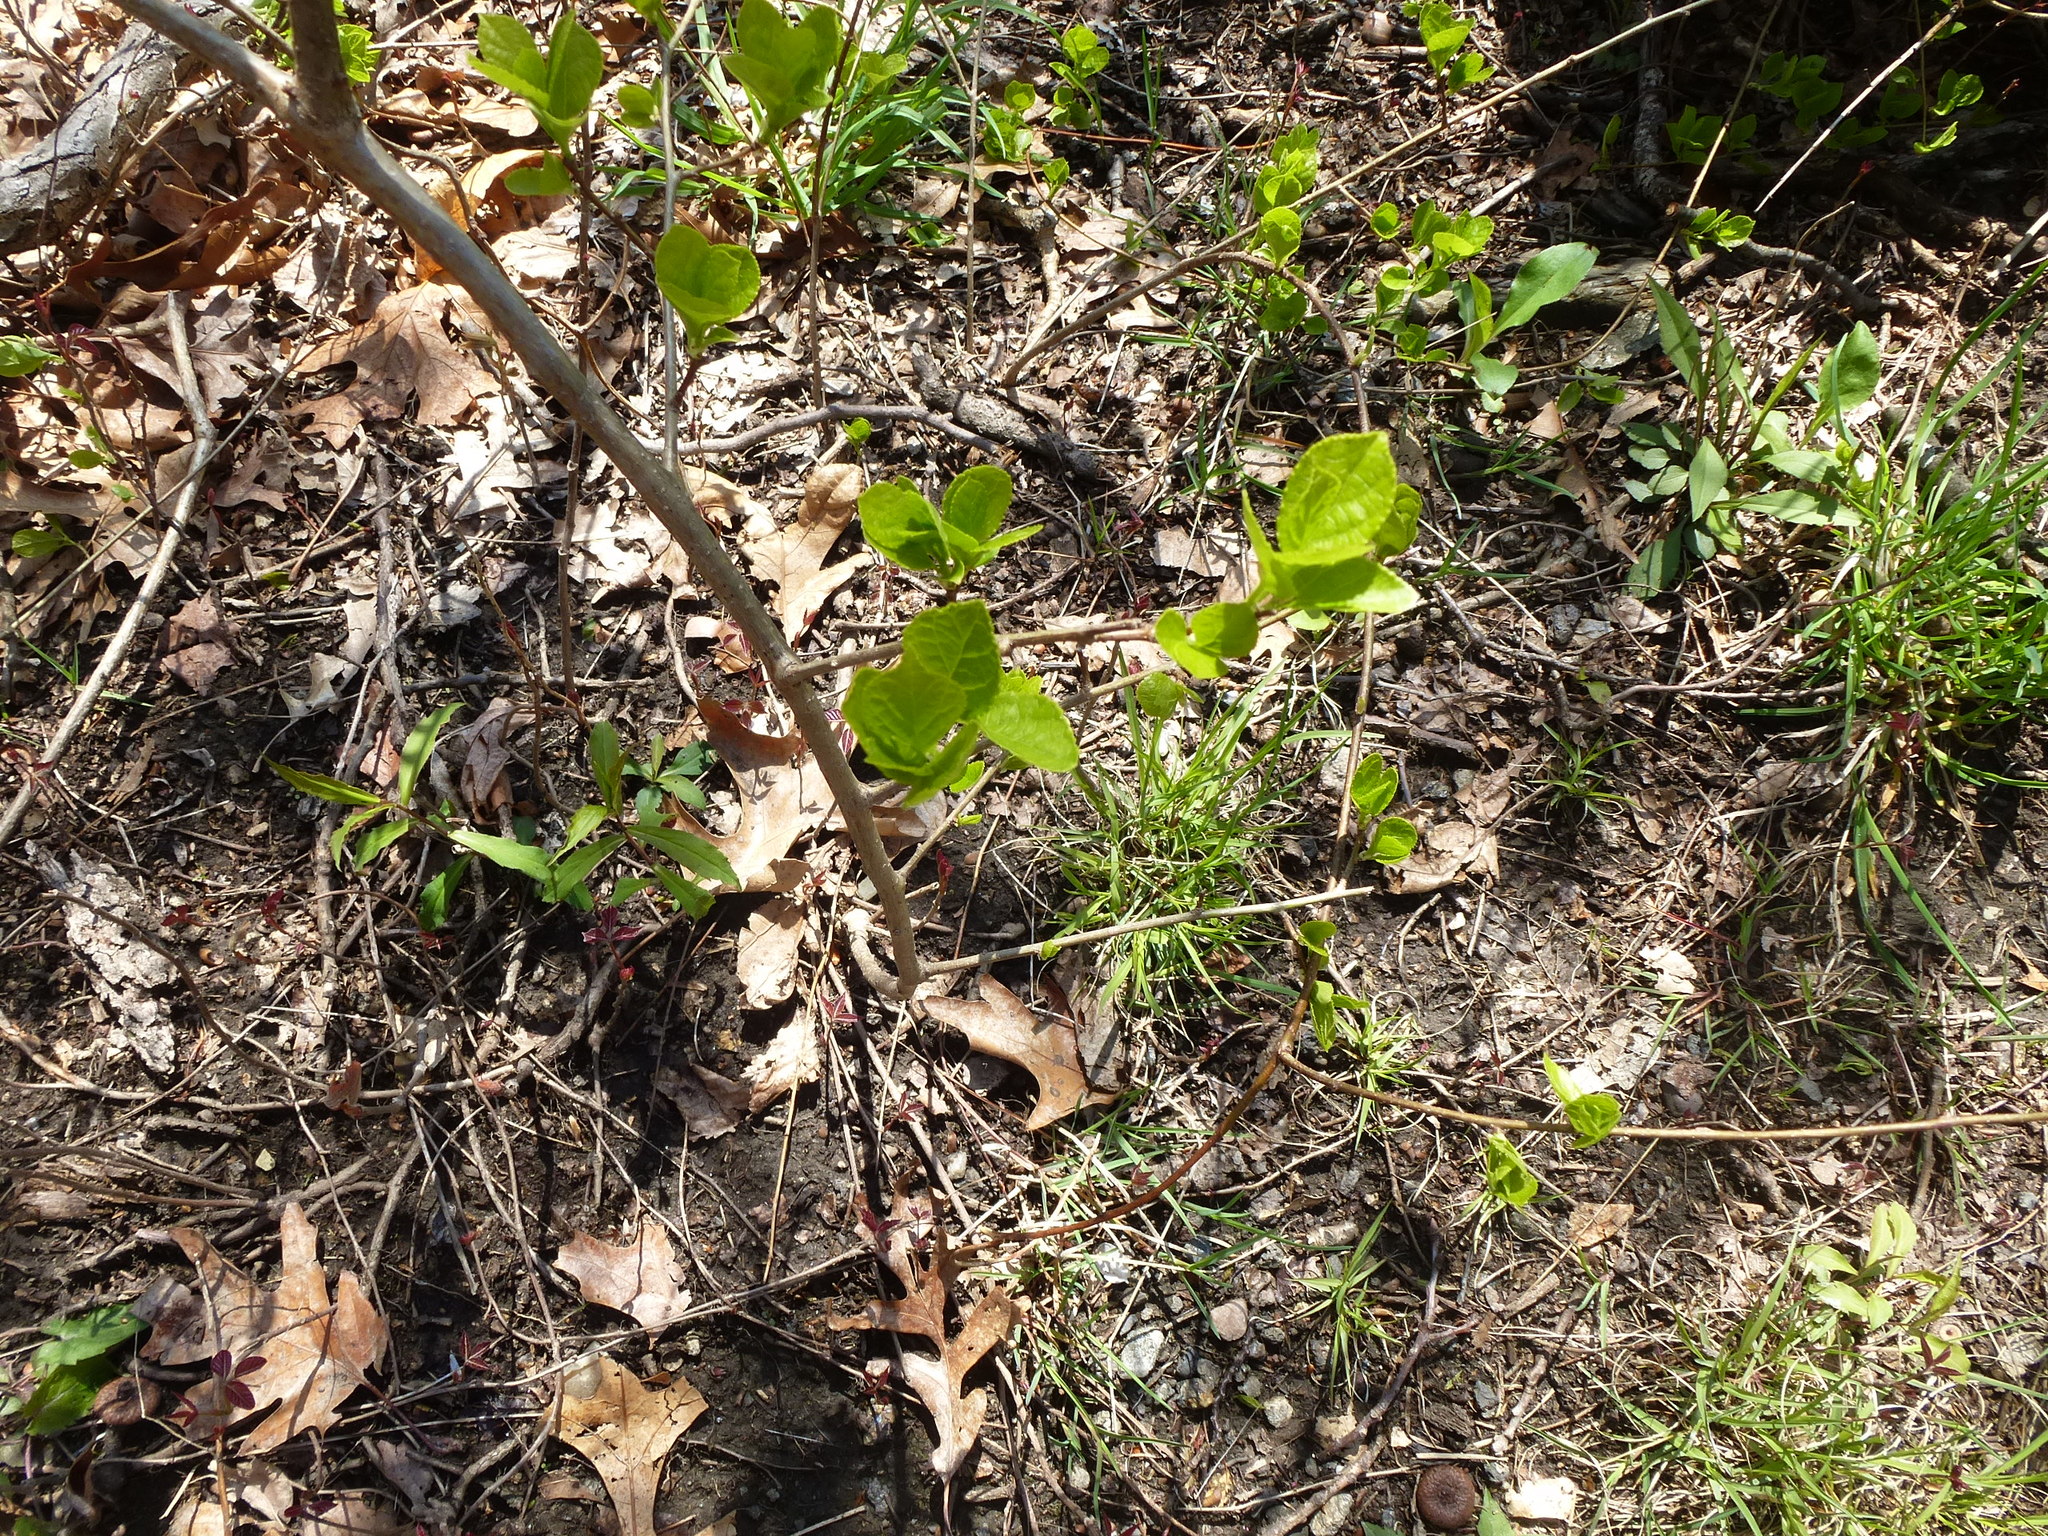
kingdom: Plantae
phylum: Tracheophyta
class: Magnoliopsida
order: Celastrales
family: Celastraceae
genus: Celastrus
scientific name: Celastrus orbiculatus
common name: Oriental bittersweet
